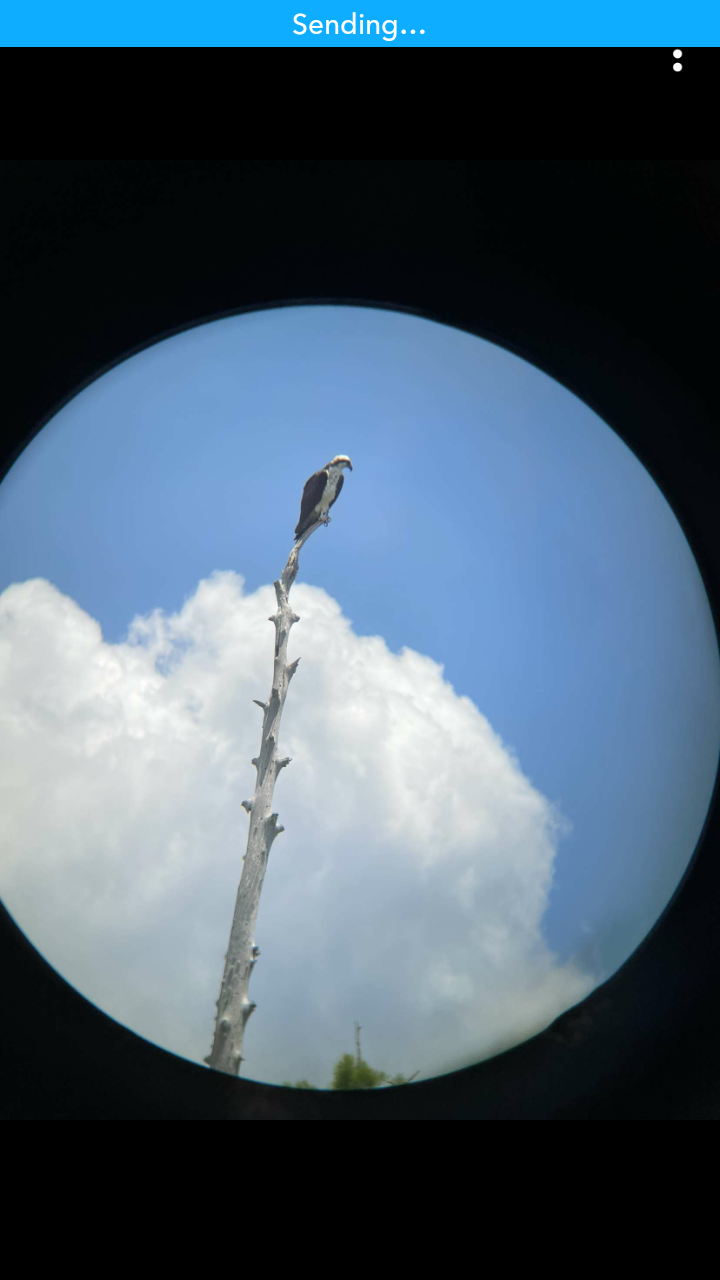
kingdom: Animalia
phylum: Chordata
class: Aves
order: Accipitriformes
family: Pandionidae
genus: Pandion
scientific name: Pandion haliaetus
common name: Osprey
